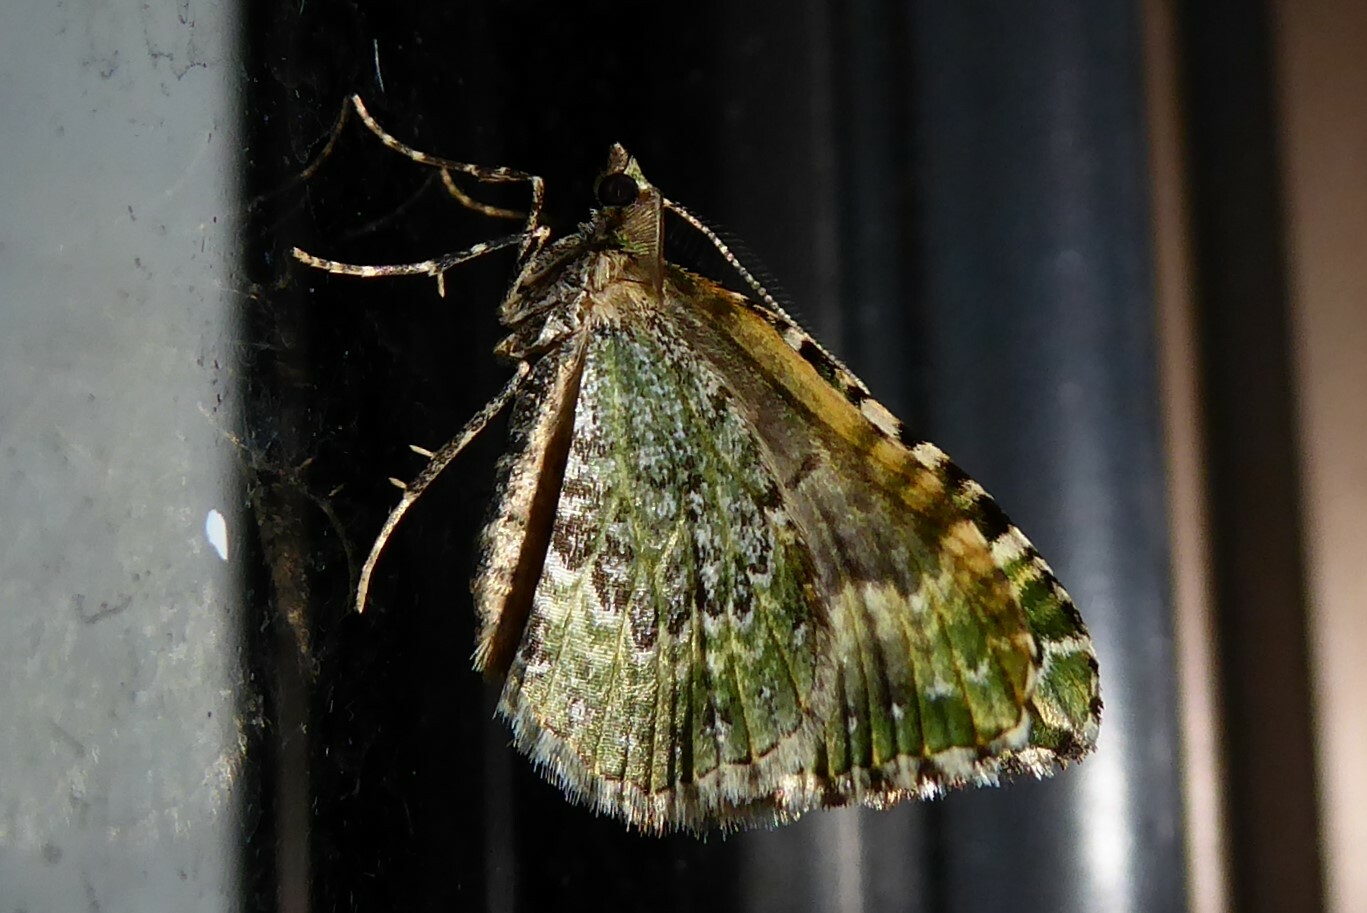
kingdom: Animalia
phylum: Arthropoda
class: Insecta
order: Lepidoptera
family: Geometridae
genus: Asaphodes
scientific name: Asaphodes beata
